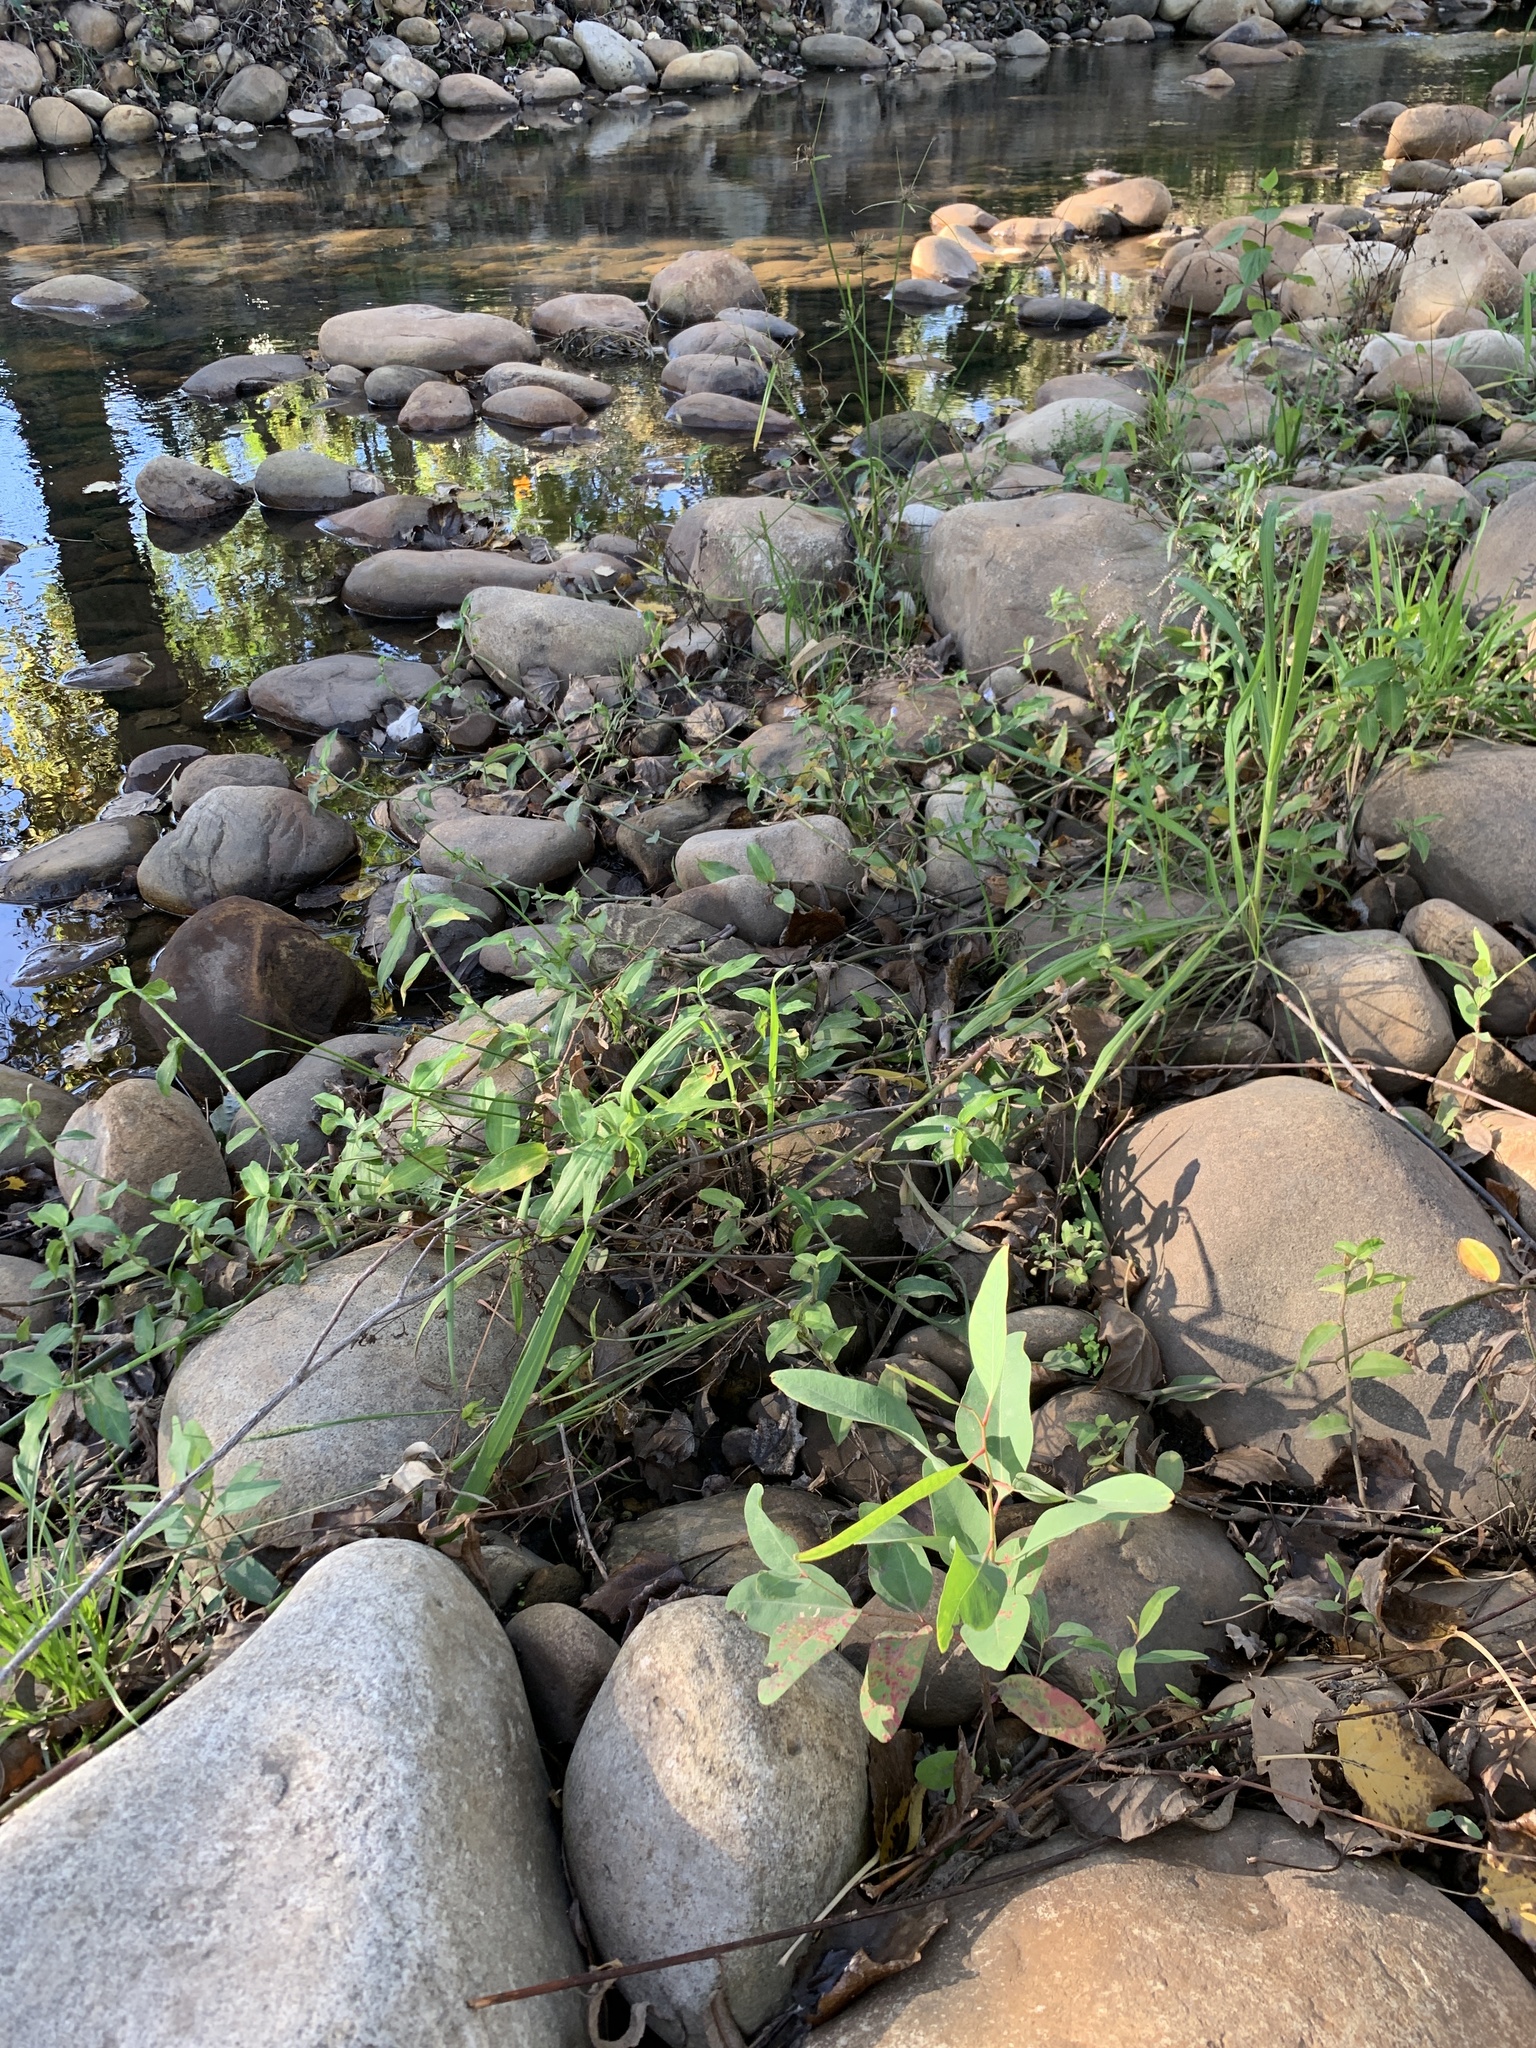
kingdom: Plantae
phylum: Tracheophyta
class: Magnoliopsida
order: Myrtales
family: Myrtaceae
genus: Eucalyptus
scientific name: Eucalyptus camaldulensis
